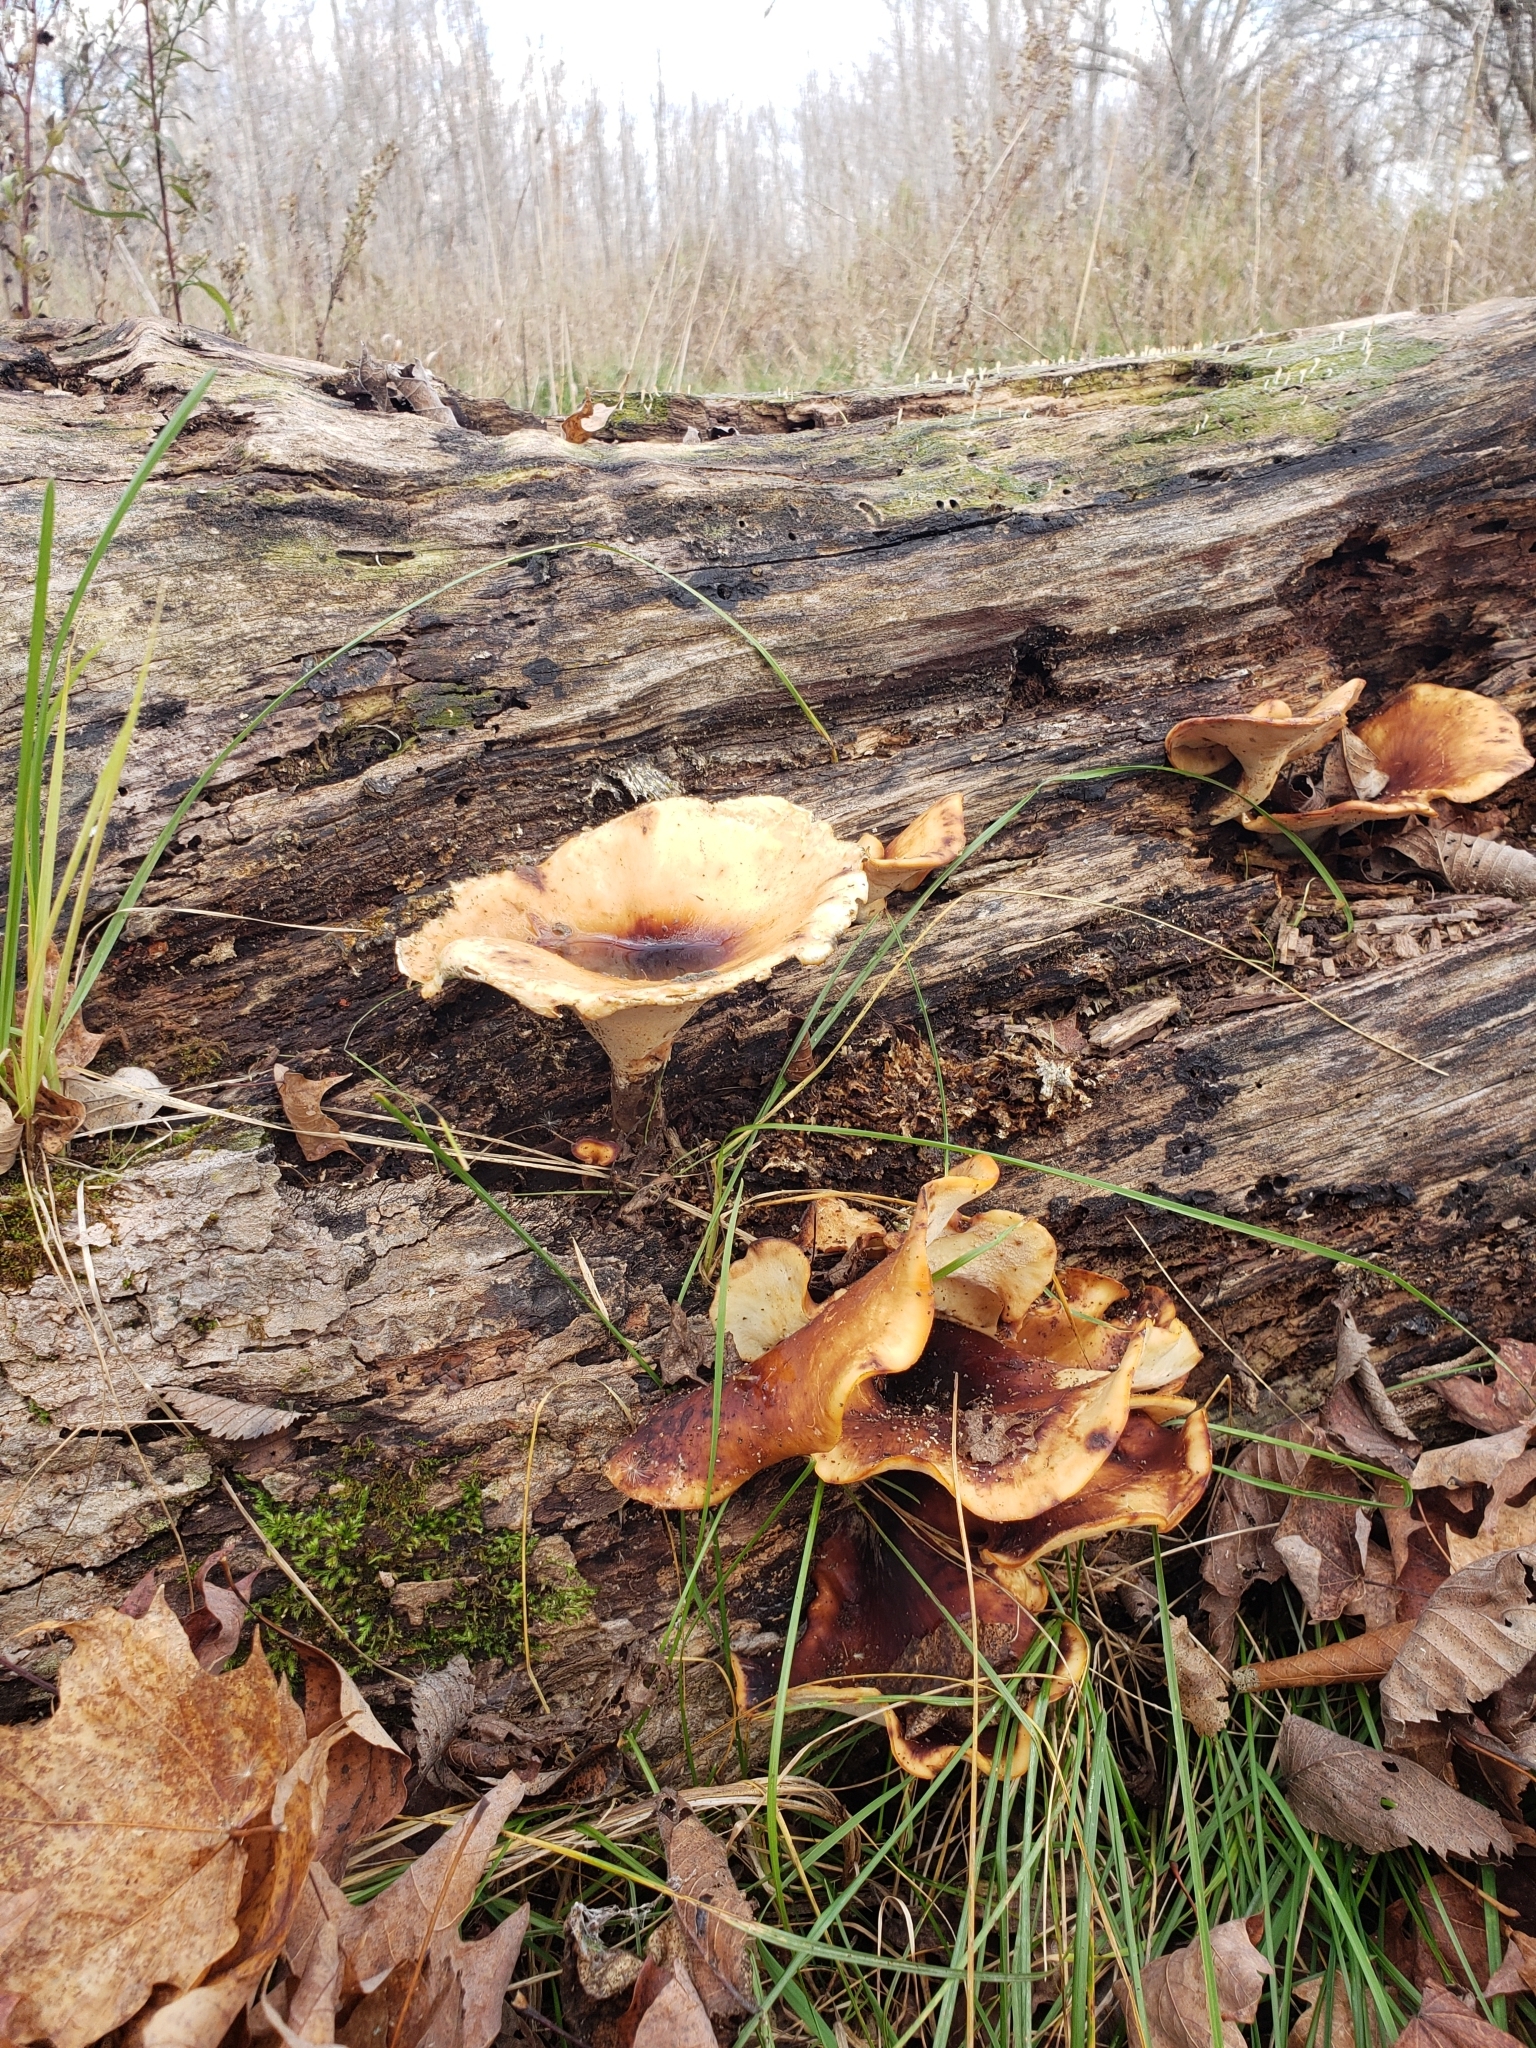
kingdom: Fungi
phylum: Basidiomycota
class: Agaricomycetes
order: Polyporales
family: Polyporaceae
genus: Picipes
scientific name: Picipes badius
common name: Bay polypore
